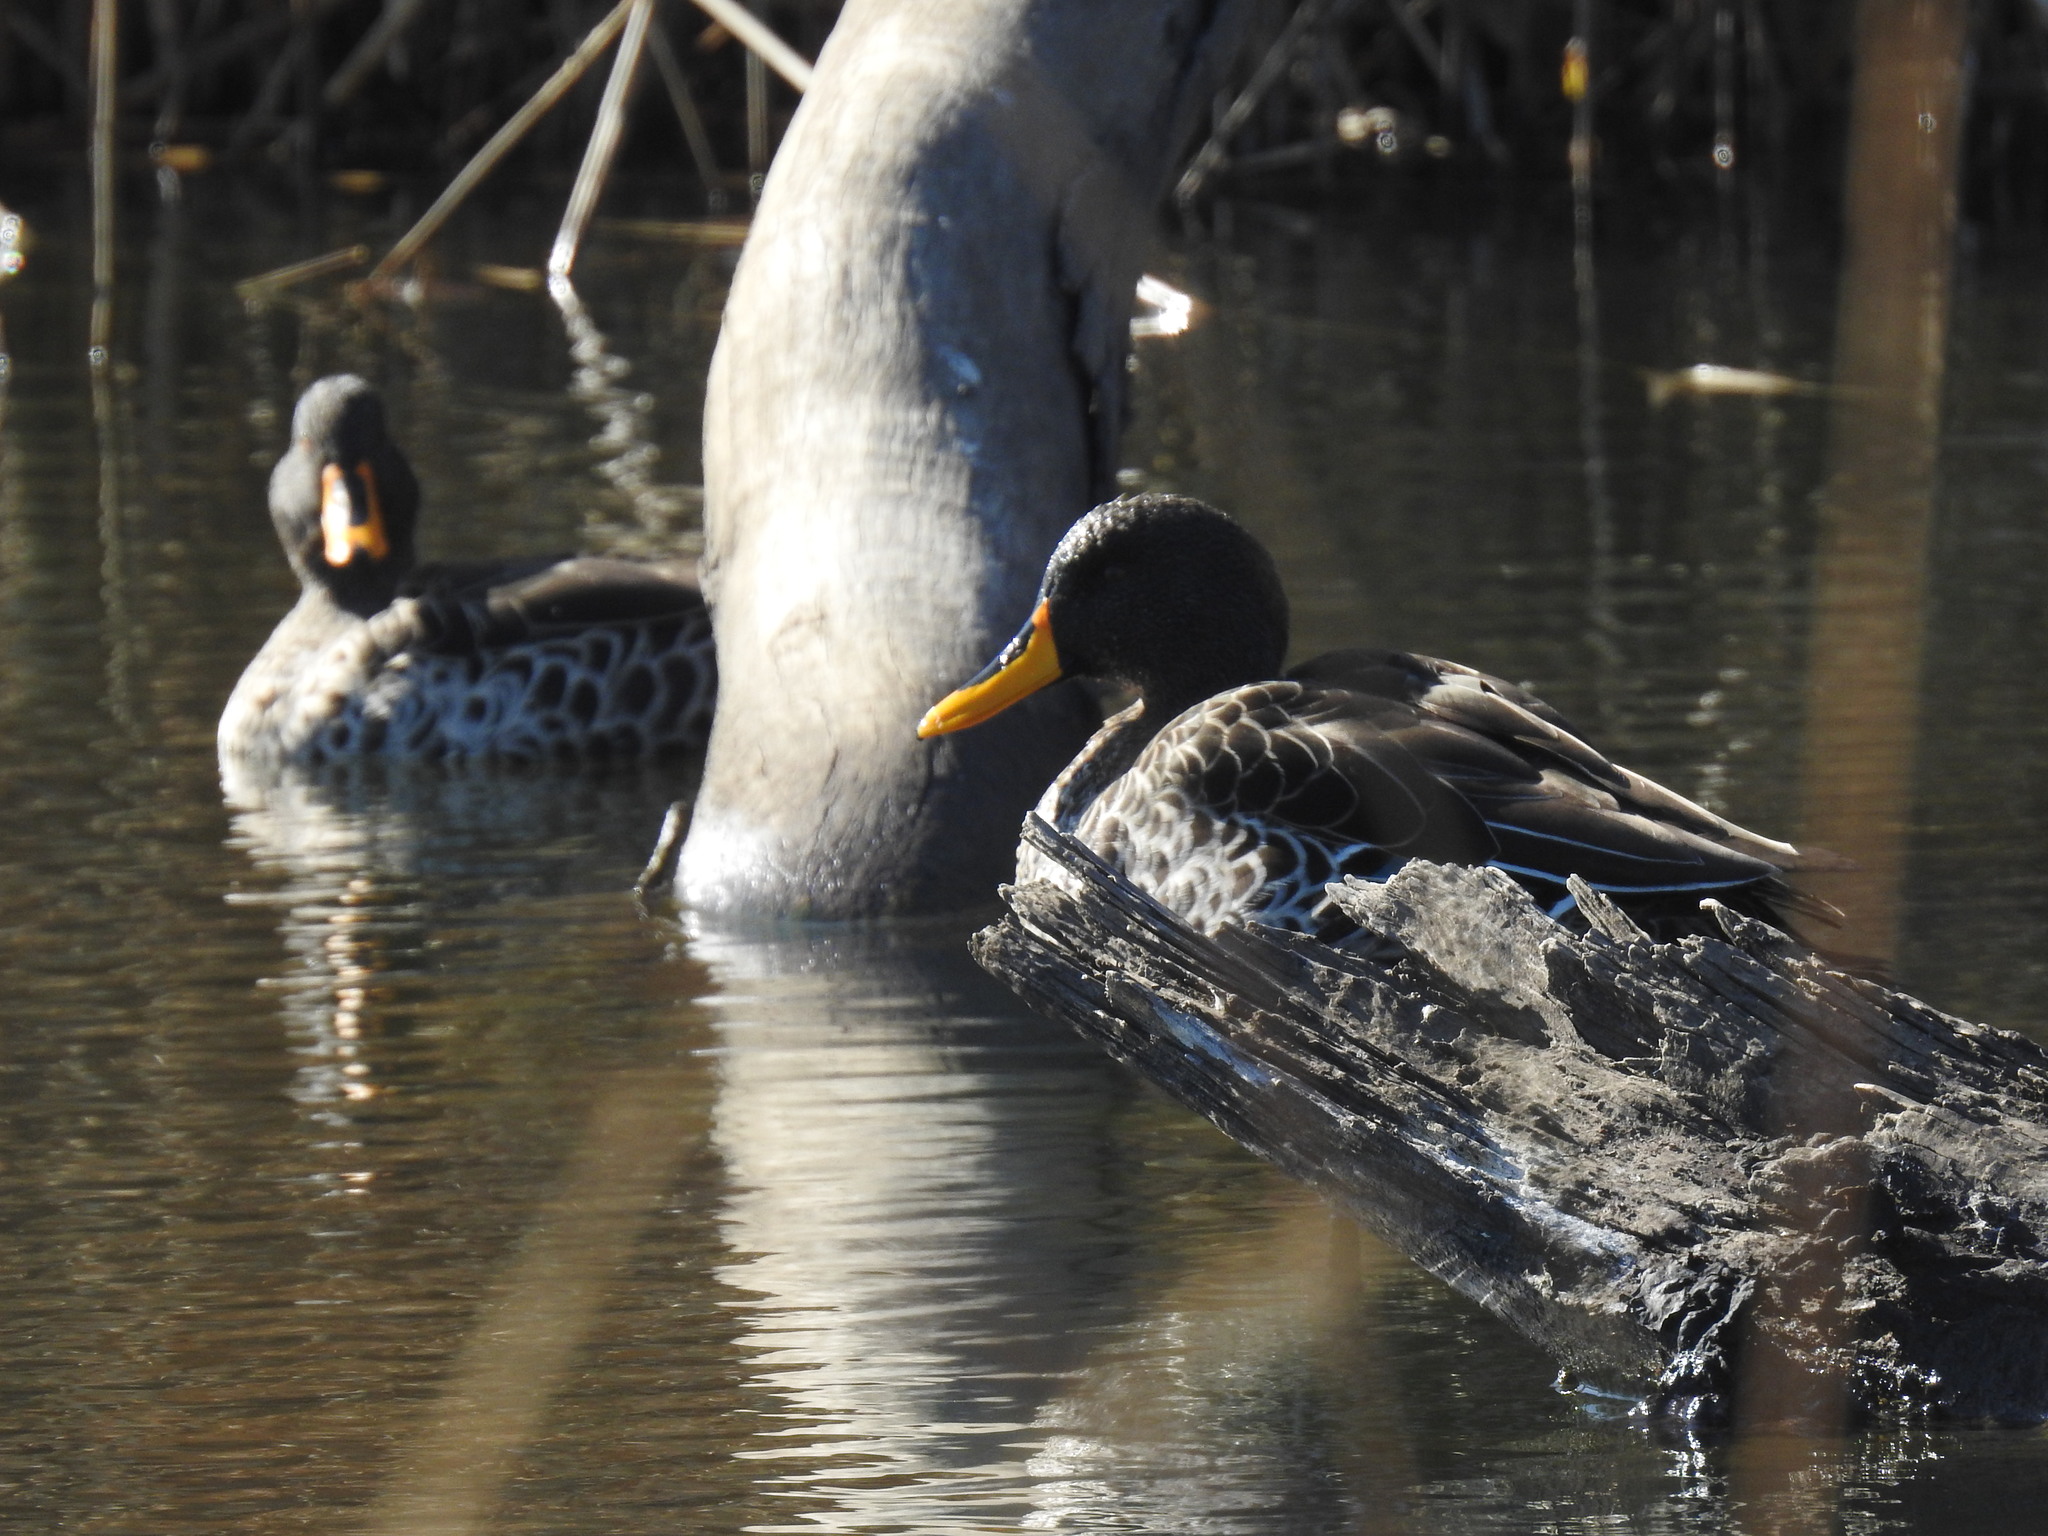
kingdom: Animalia
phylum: Chordata
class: Aves
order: Anseriformes
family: Anatidae
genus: Anas
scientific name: Anas undulata
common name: Yellow-billed duck
